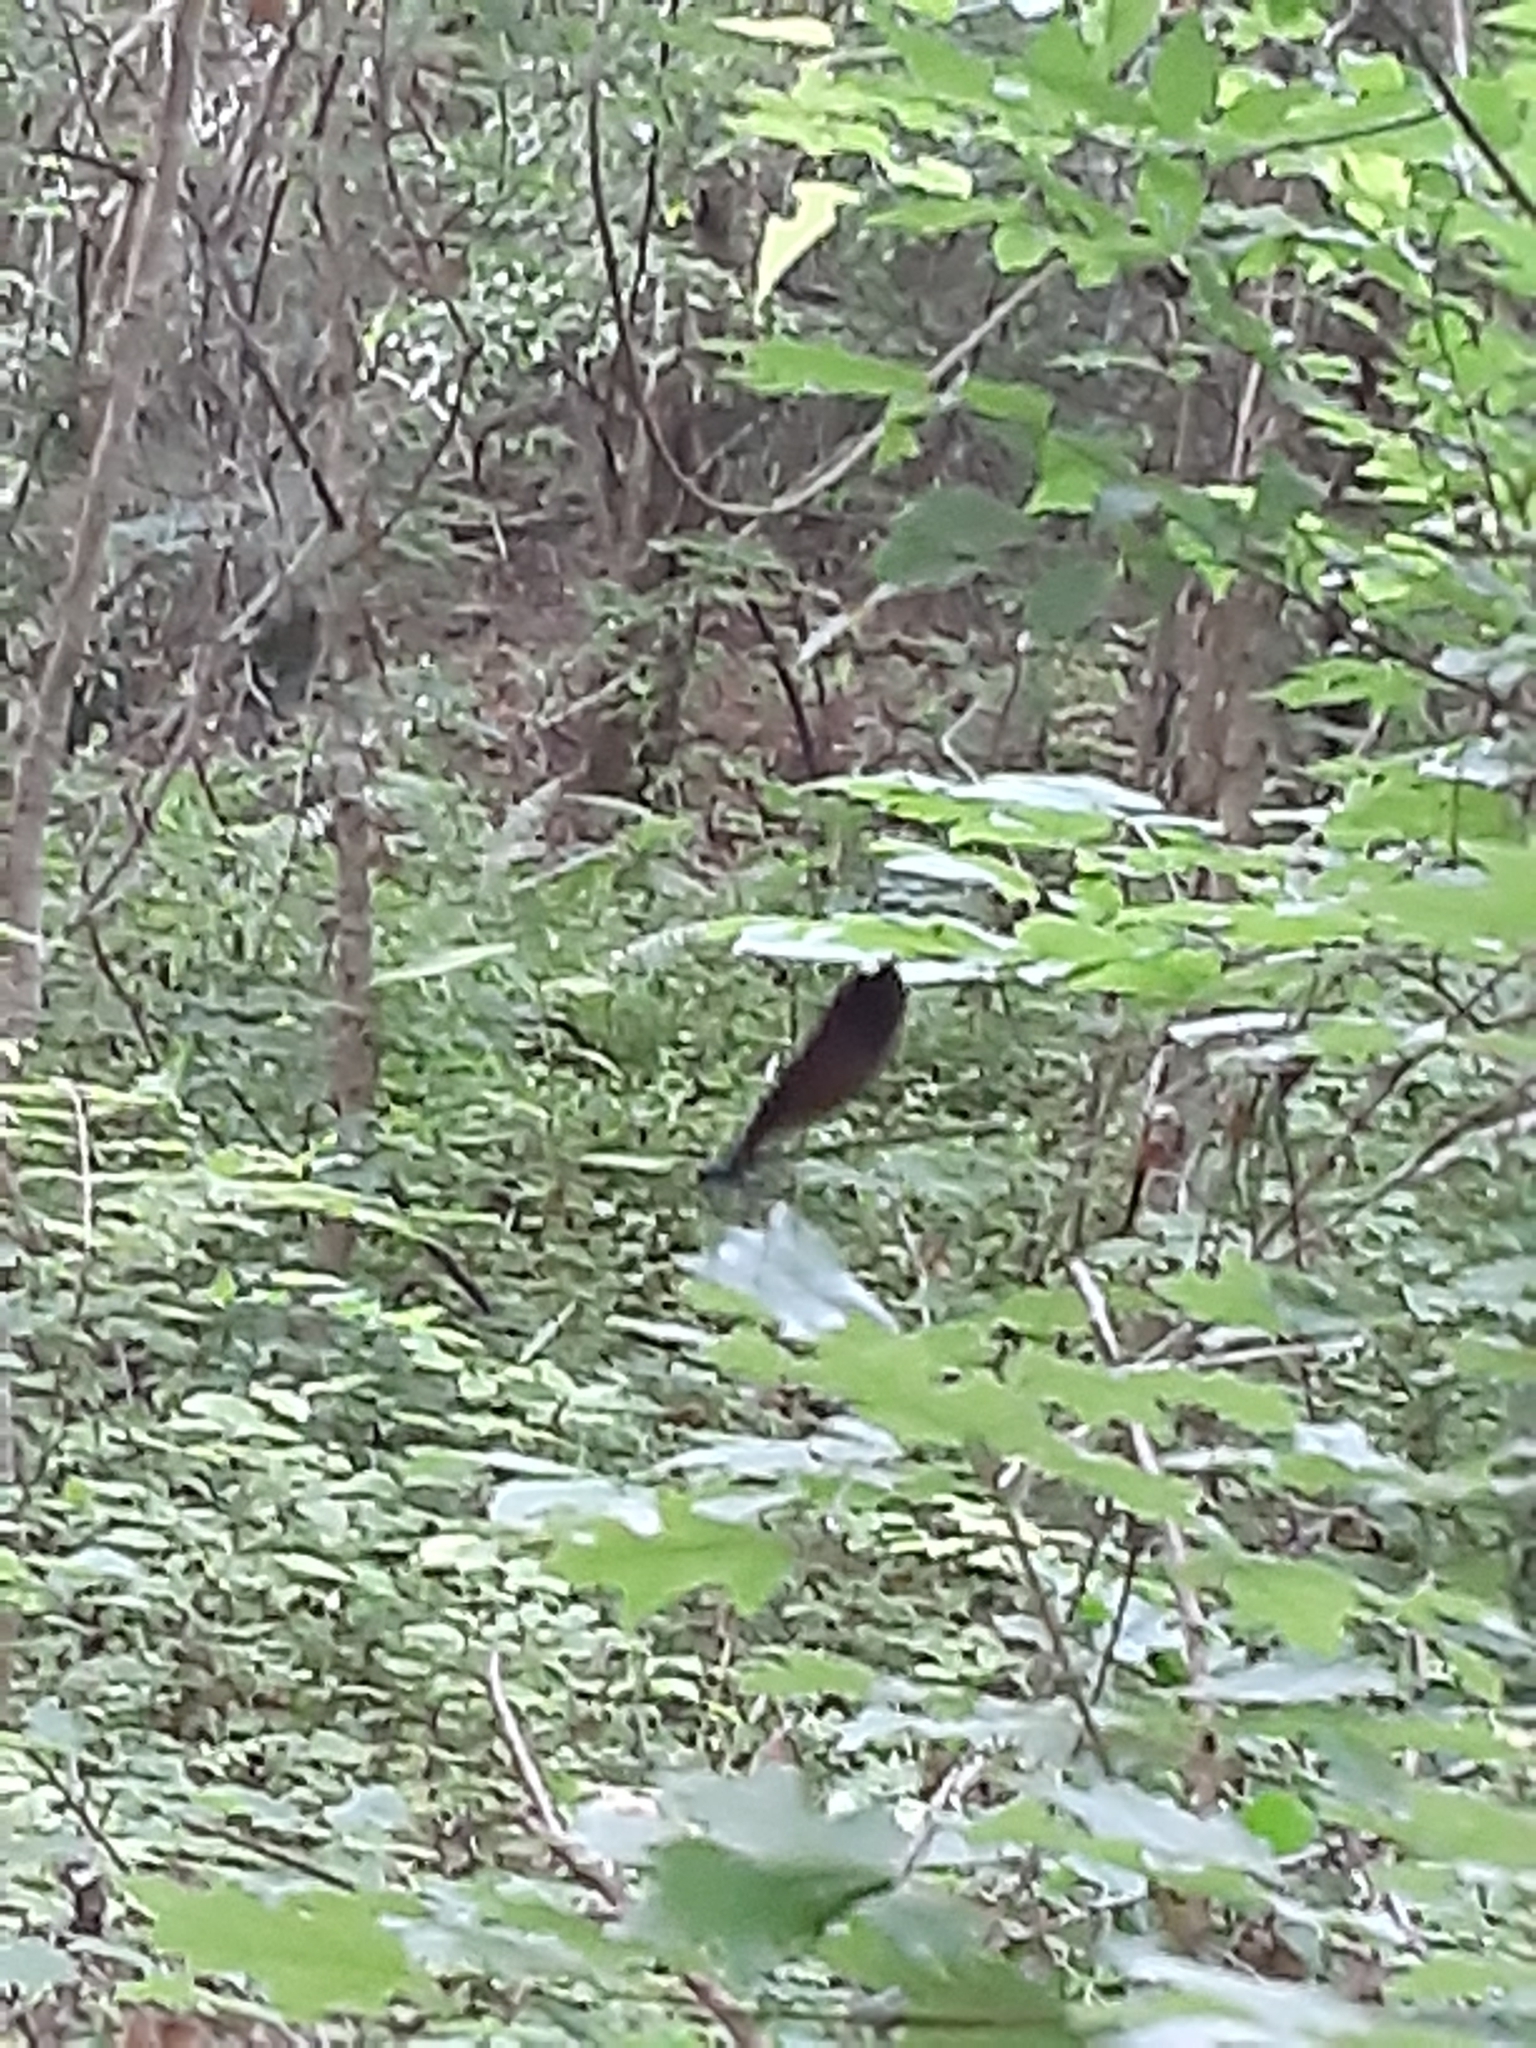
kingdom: Animalia
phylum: Arthropoda
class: Insecta
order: Odonata
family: Calopterygidae
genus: Calopteryx
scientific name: Calopteryx maculata
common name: Ebony jewelwing
